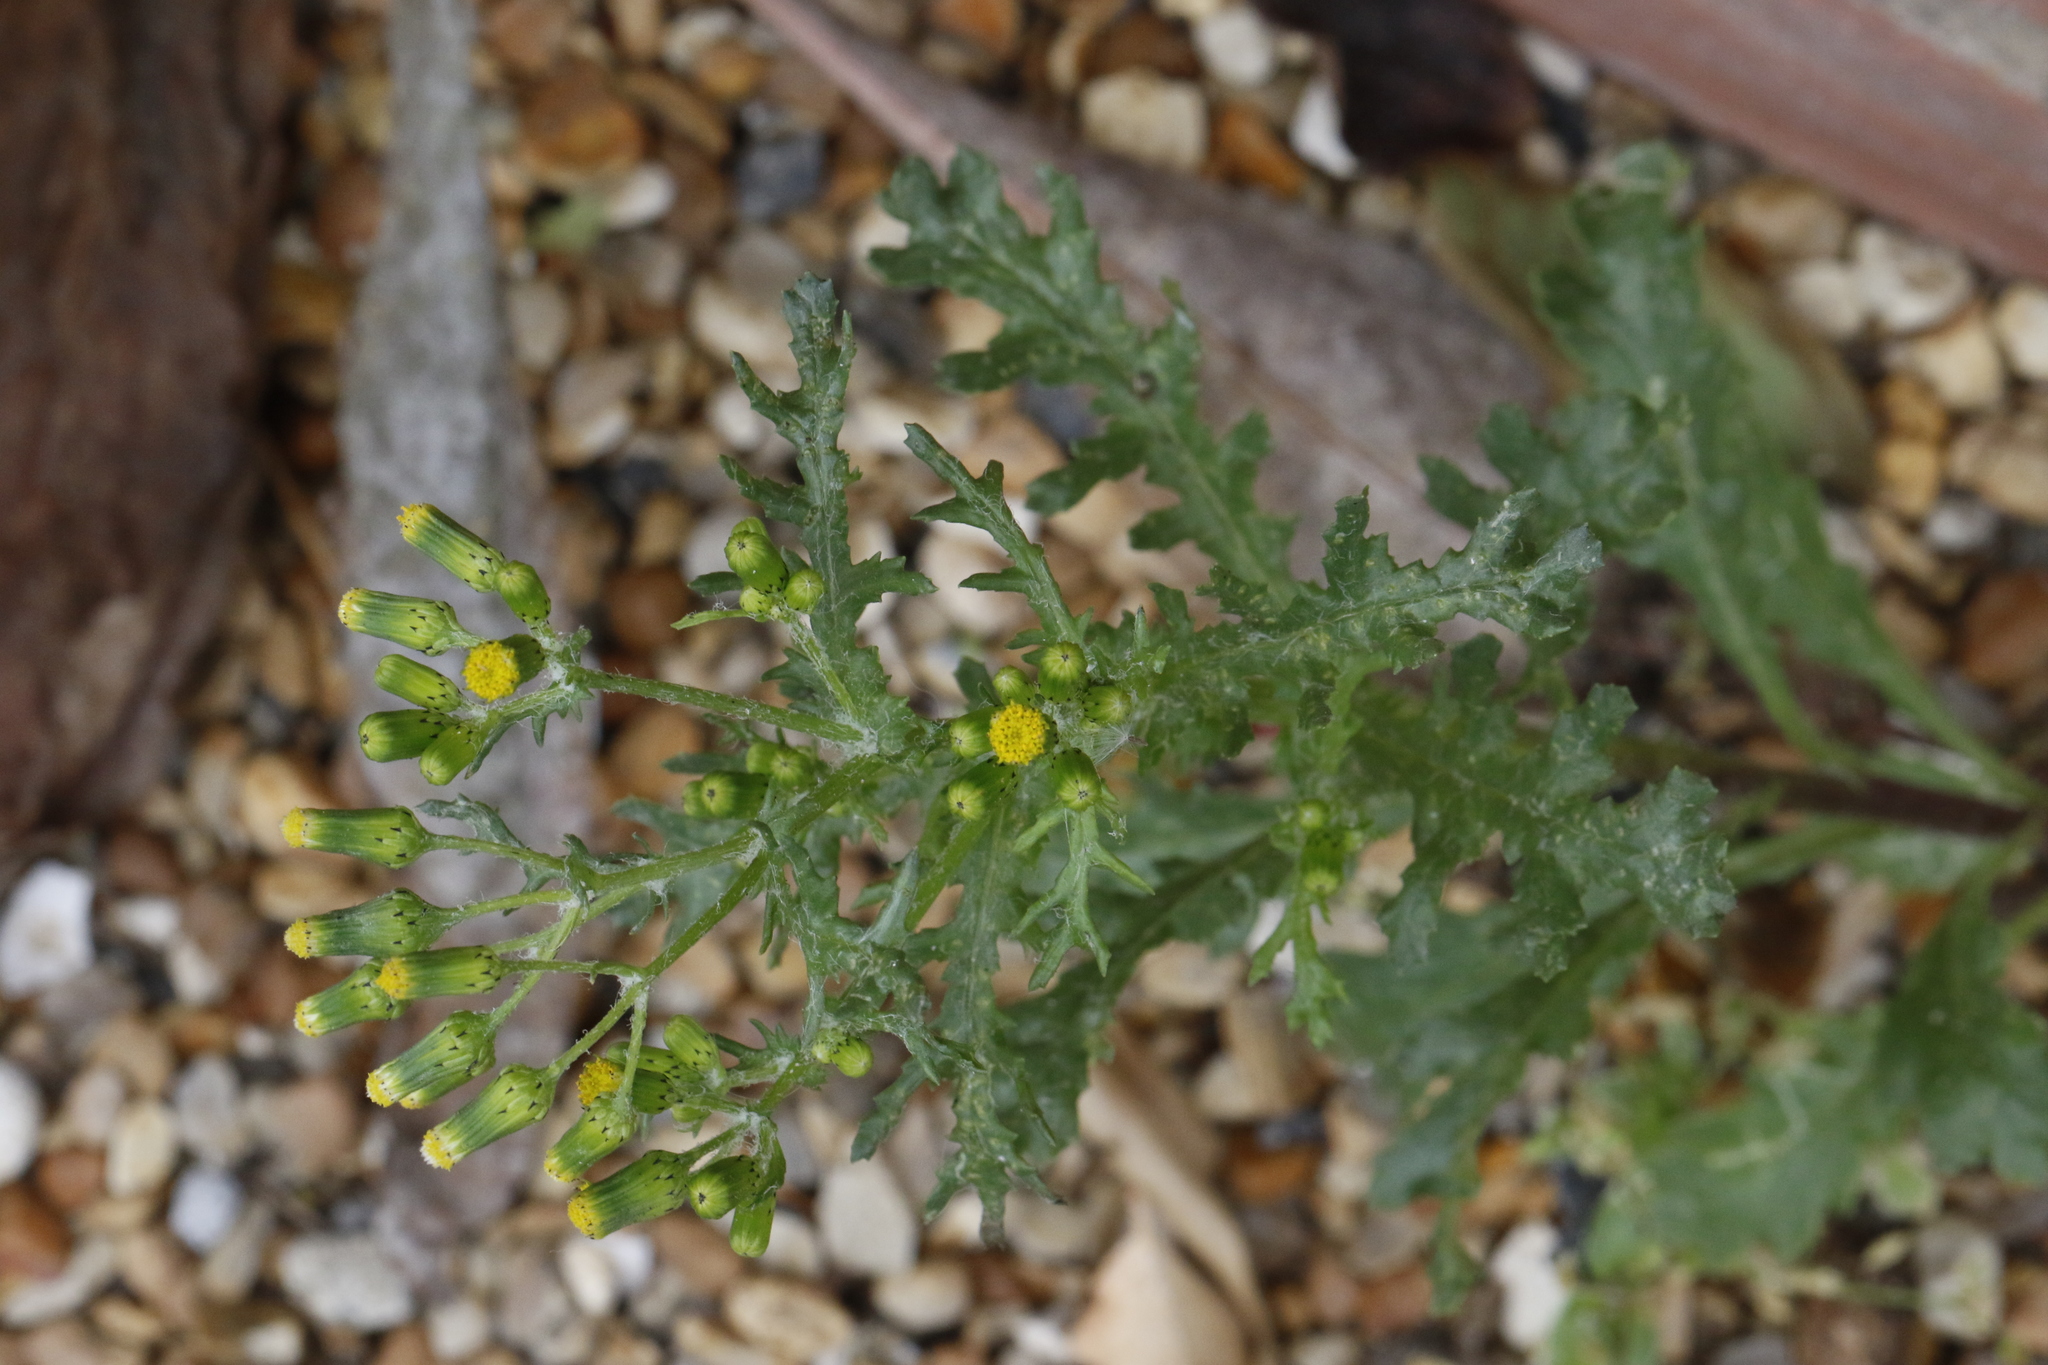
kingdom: Plantae
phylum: Tracheophyta
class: Magnoliopsida
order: Asterales
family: Asteraceae
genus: Senecio
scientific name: Senecio vulgaris
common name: Old-man-in-the-spring
